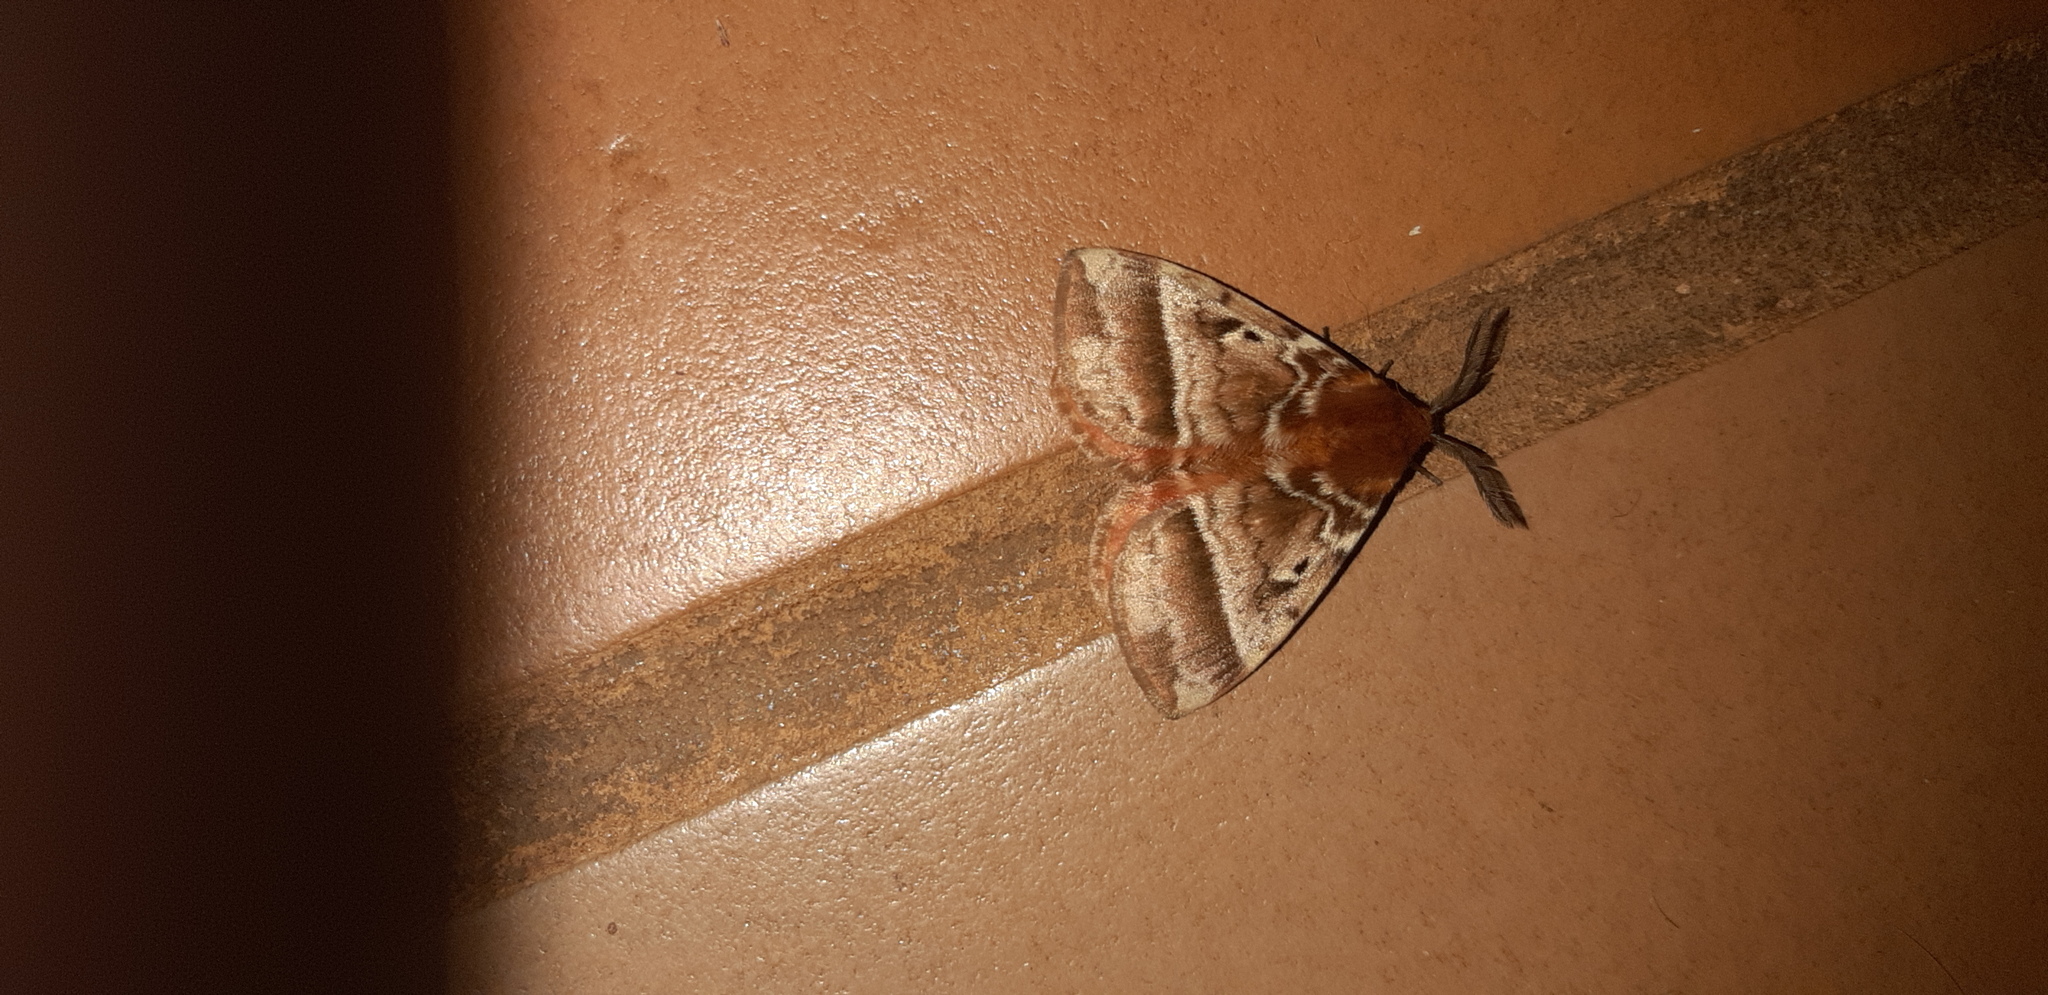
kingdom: Animalia
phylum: Arthropoda
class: Insecta
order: Lepidoptera
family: Eupterotidae
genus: Hemijana
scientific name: Hemijana
